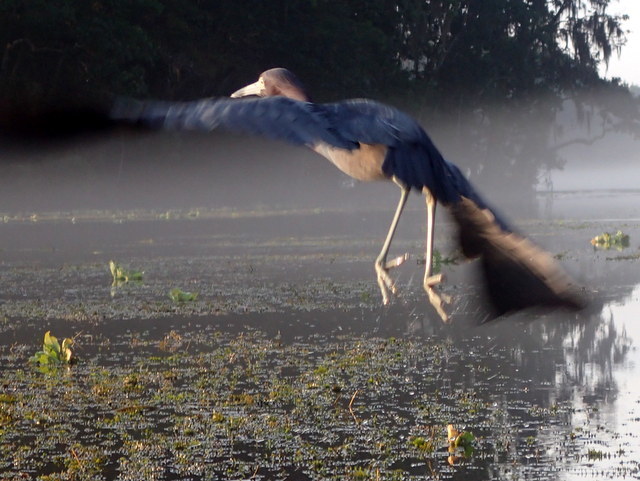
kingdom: Animalia
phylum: Chordata
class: Aves
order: Pelecaniformes
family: Ardeidae
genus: Egretta
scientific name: Egretta caerulea
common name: Little blue heron
